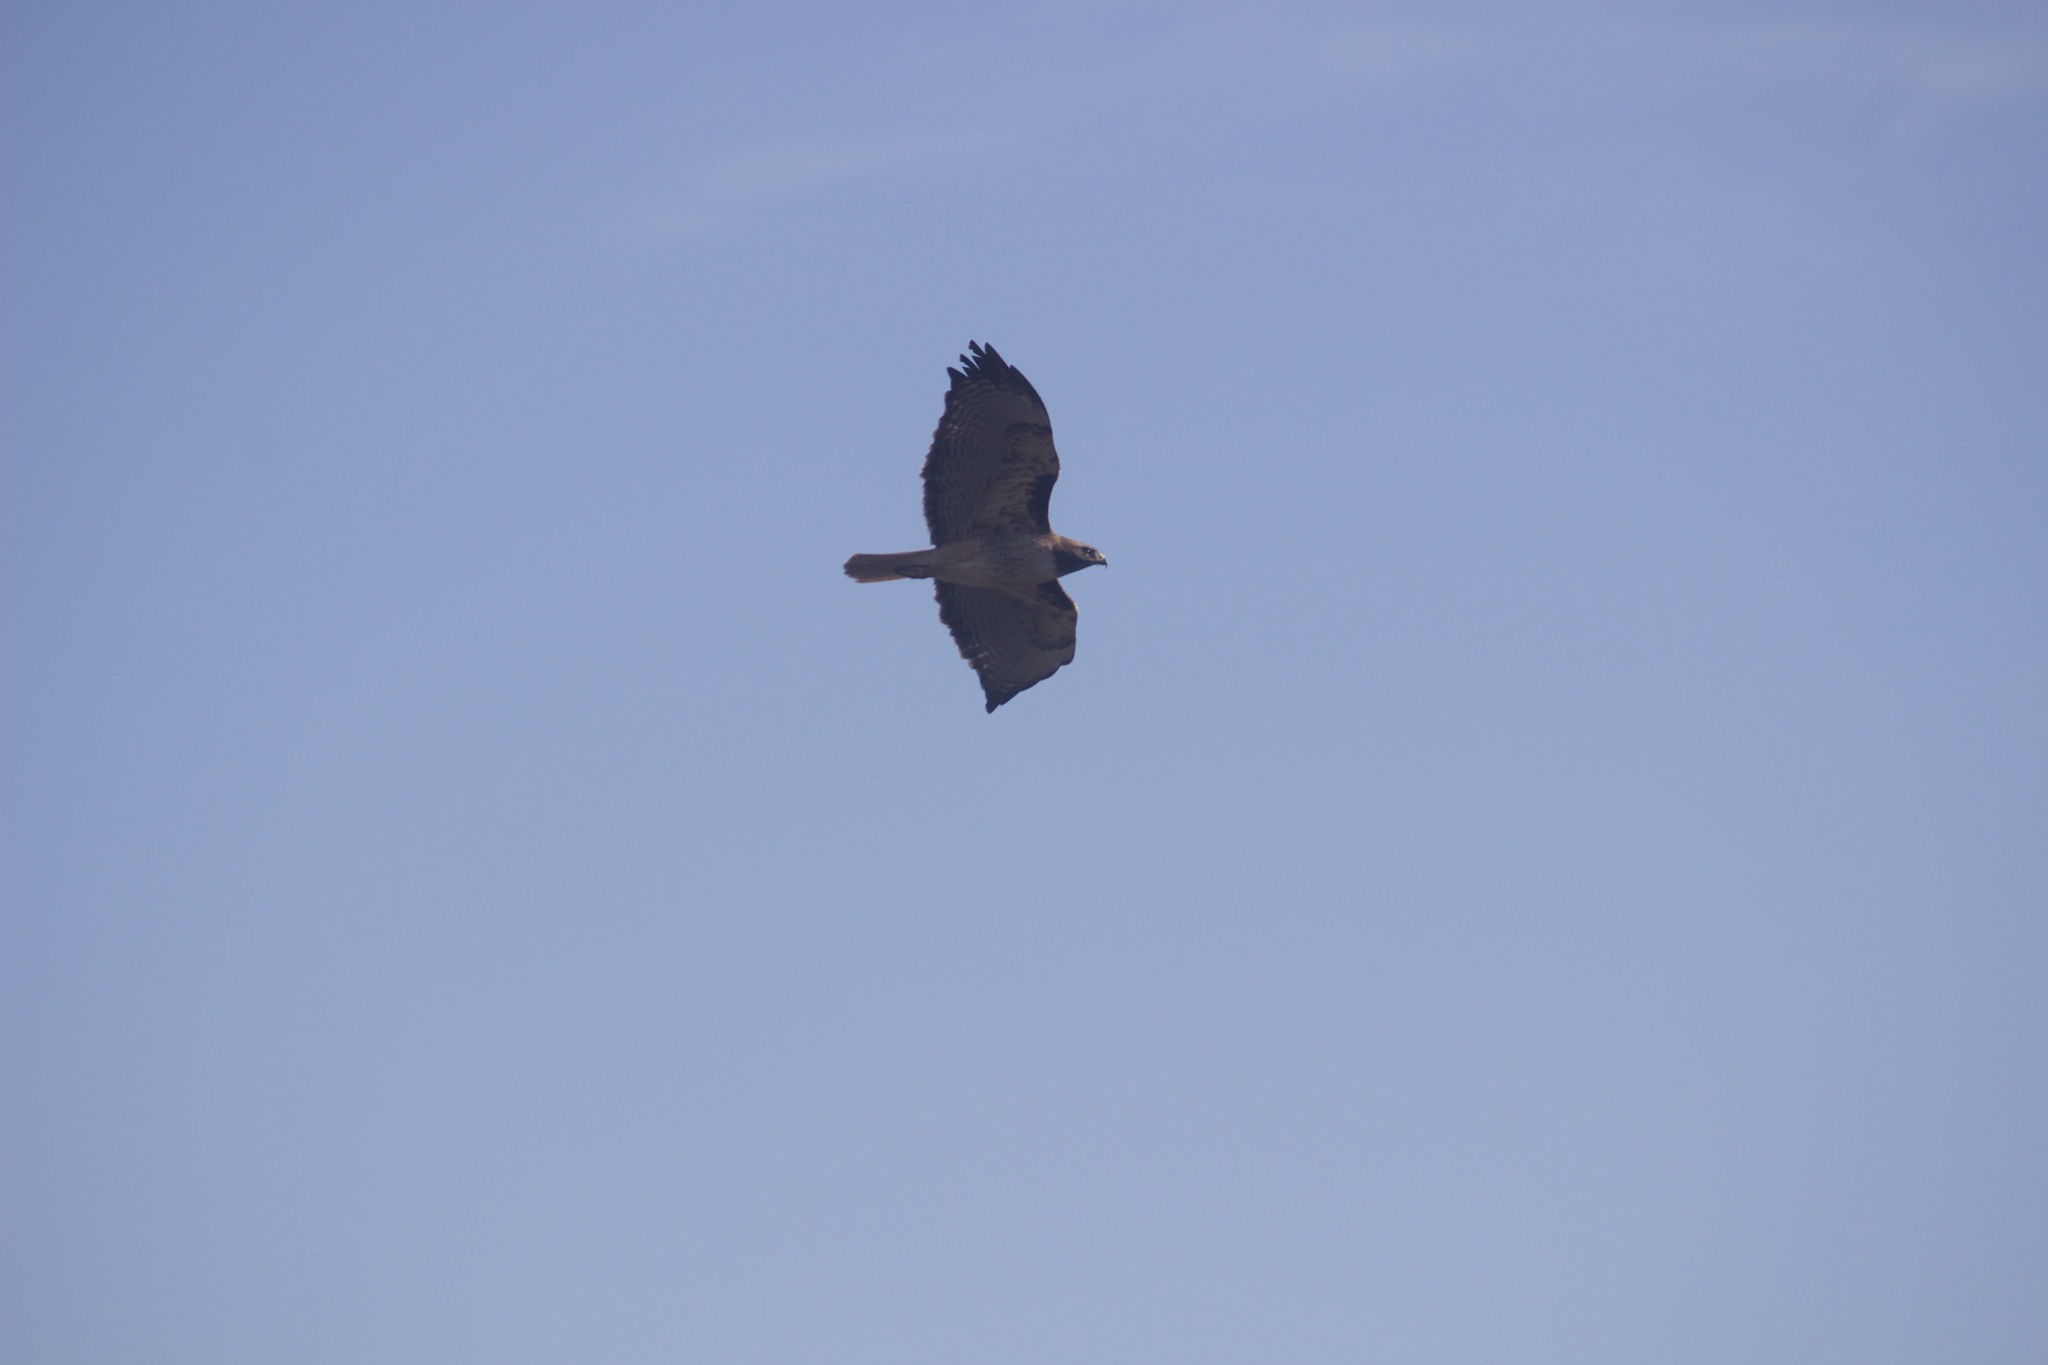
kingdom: Animalia
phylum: Chordata
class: Aves
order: Accipitriformes
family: Accipitridae
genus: Buteo
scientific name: Buteo jamaicensis
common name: Red-tailed hawk
